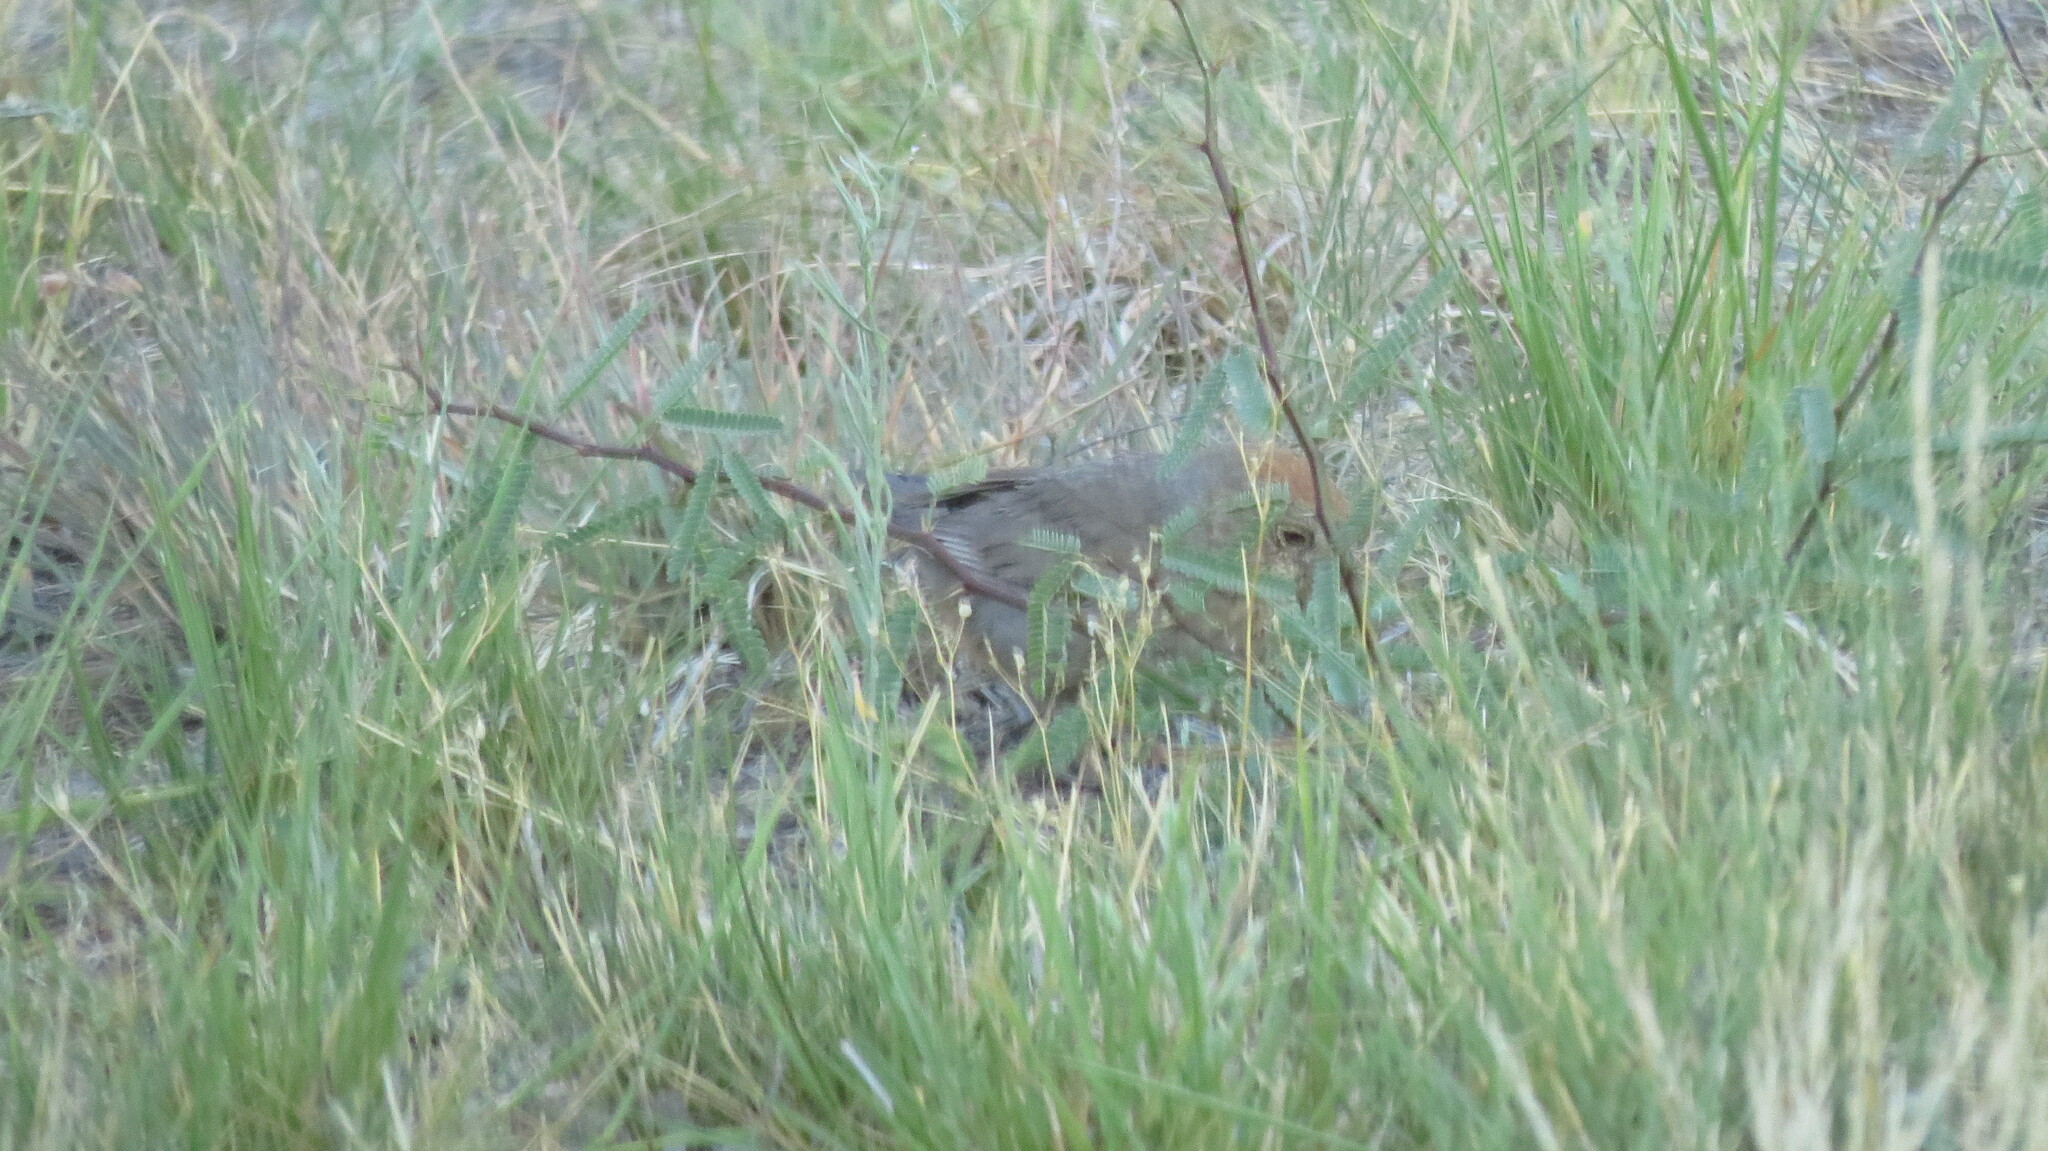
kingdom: Animalia
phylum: Chordata
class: Aves
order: Passeriformes
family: Passerellidae
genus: Melozone
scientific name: Melozone fusca
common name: Canyon towhee
